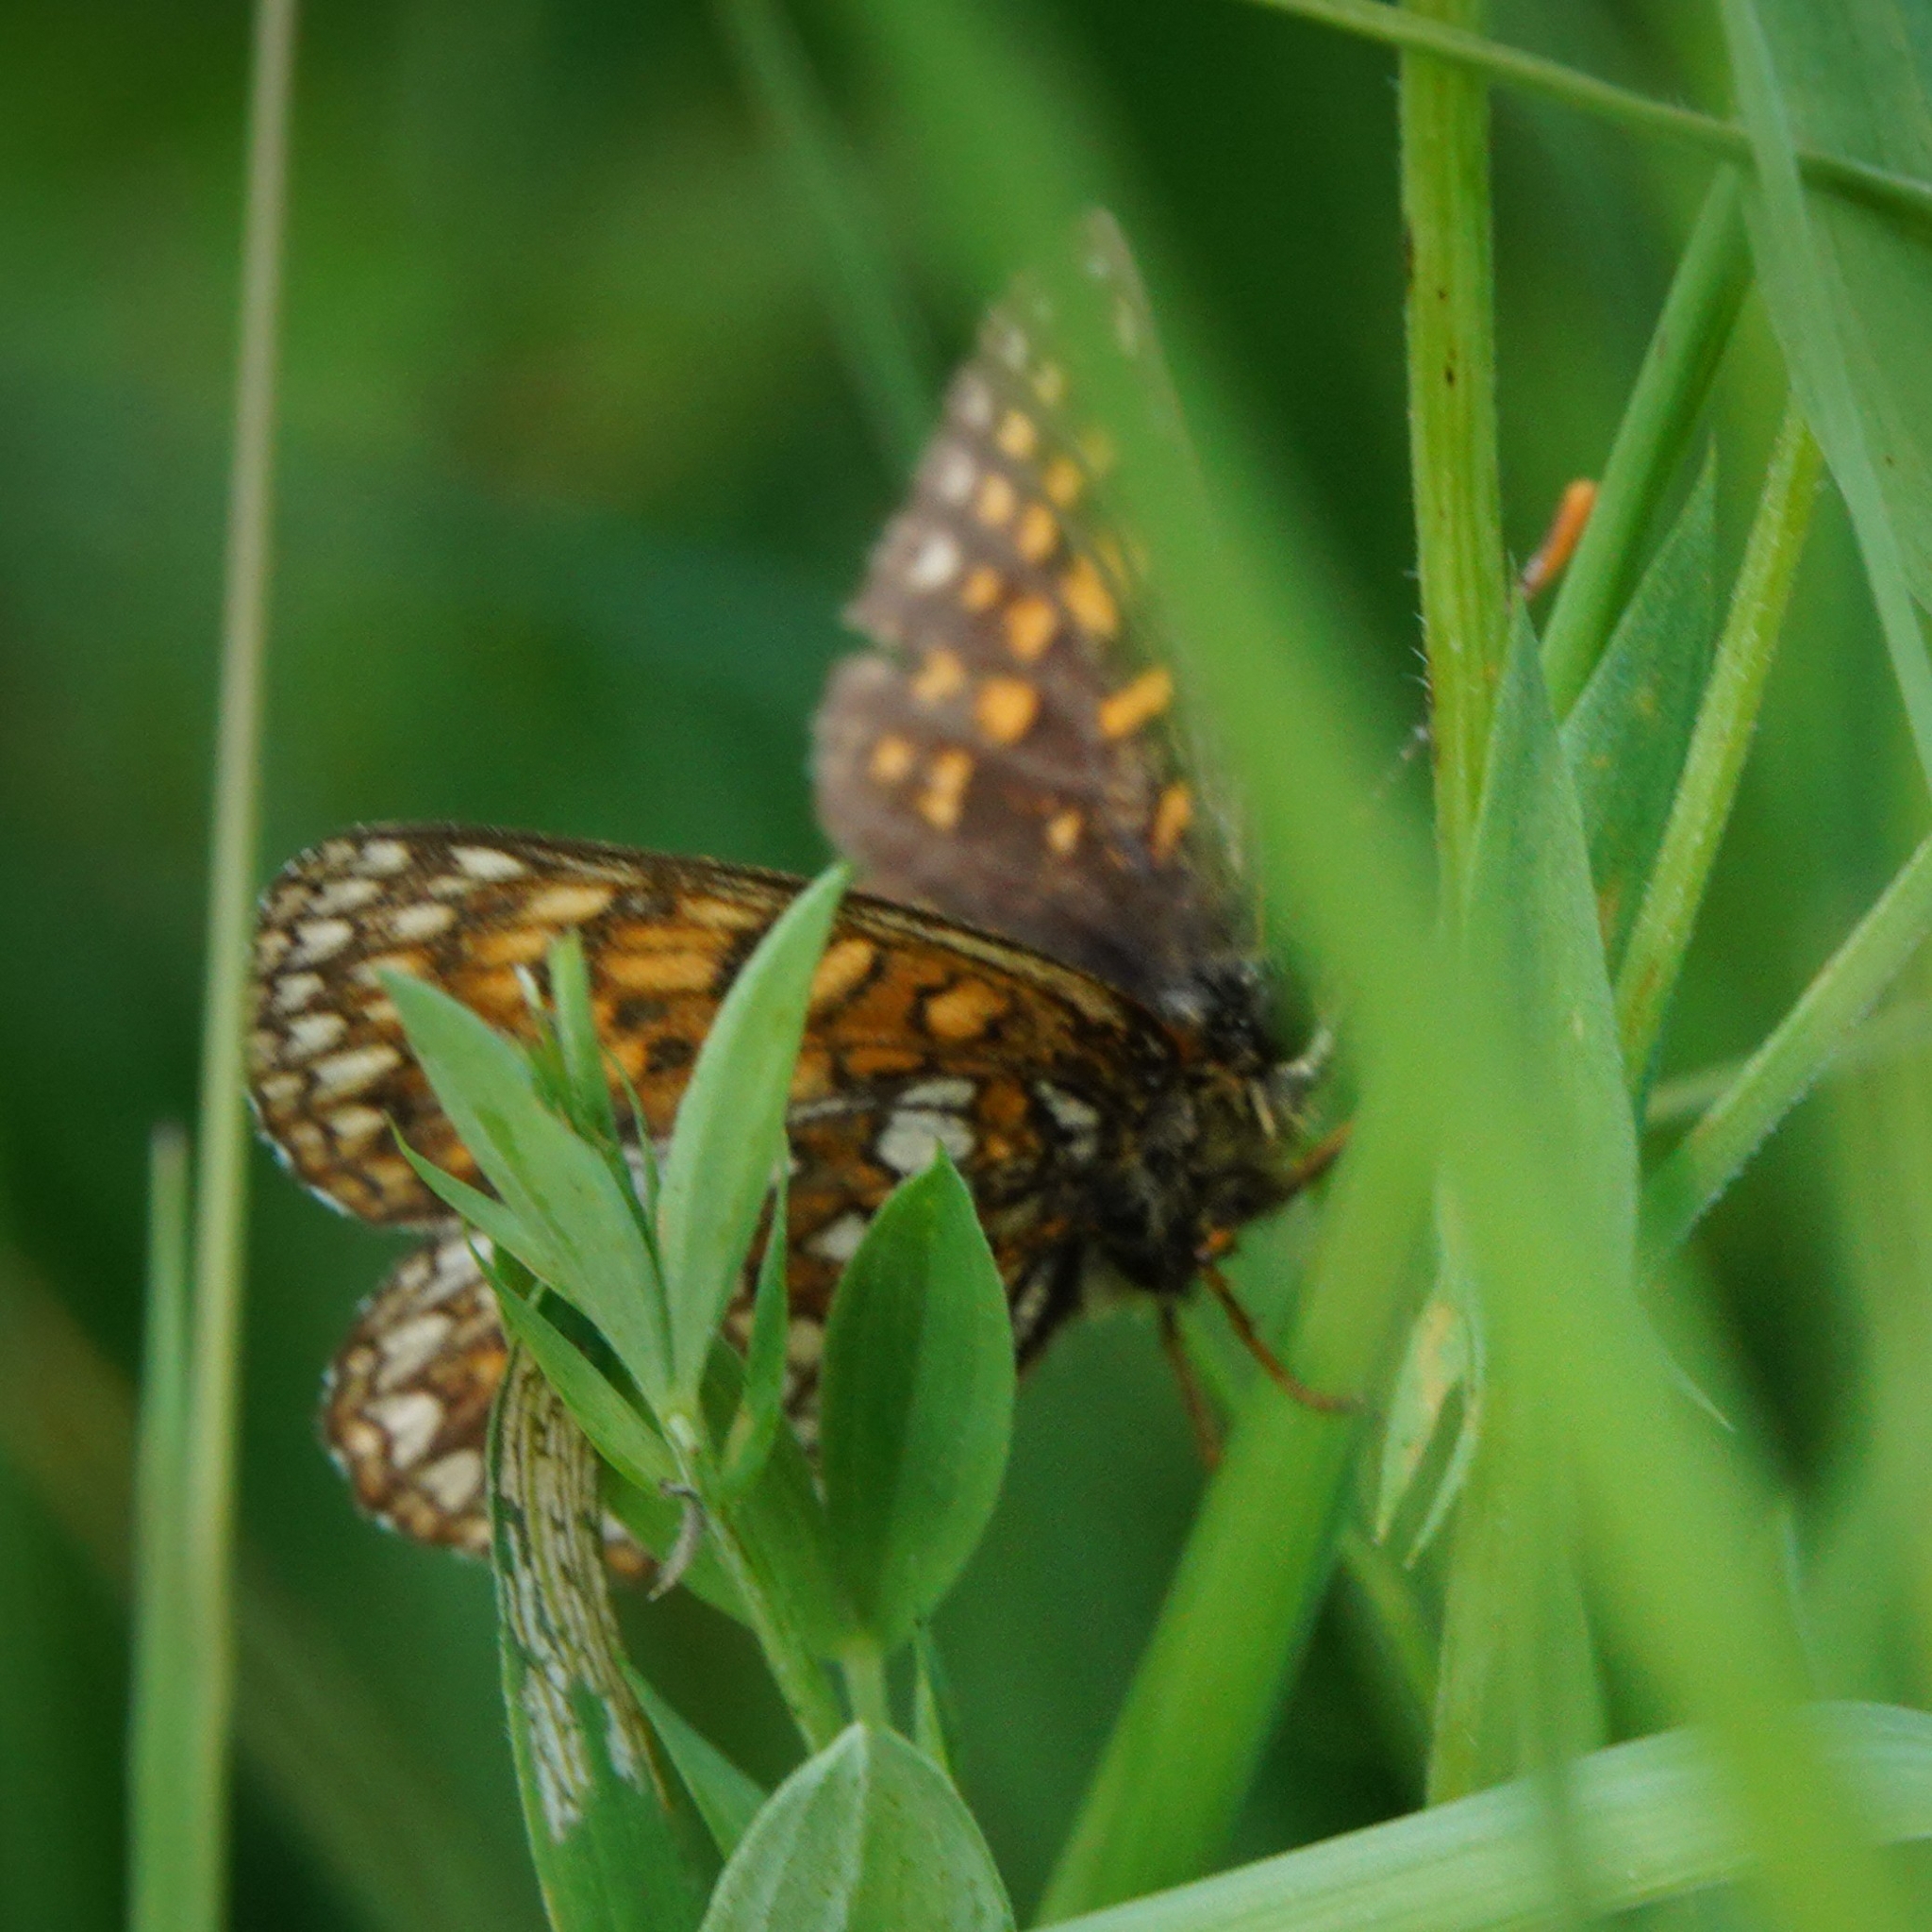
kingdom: Animalia
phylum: Arthropoda
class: Insecta
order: Lepidoptera
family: Nymphalidae
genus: Melitaea
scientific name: Melitaea diamina
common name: False heath fritillary
